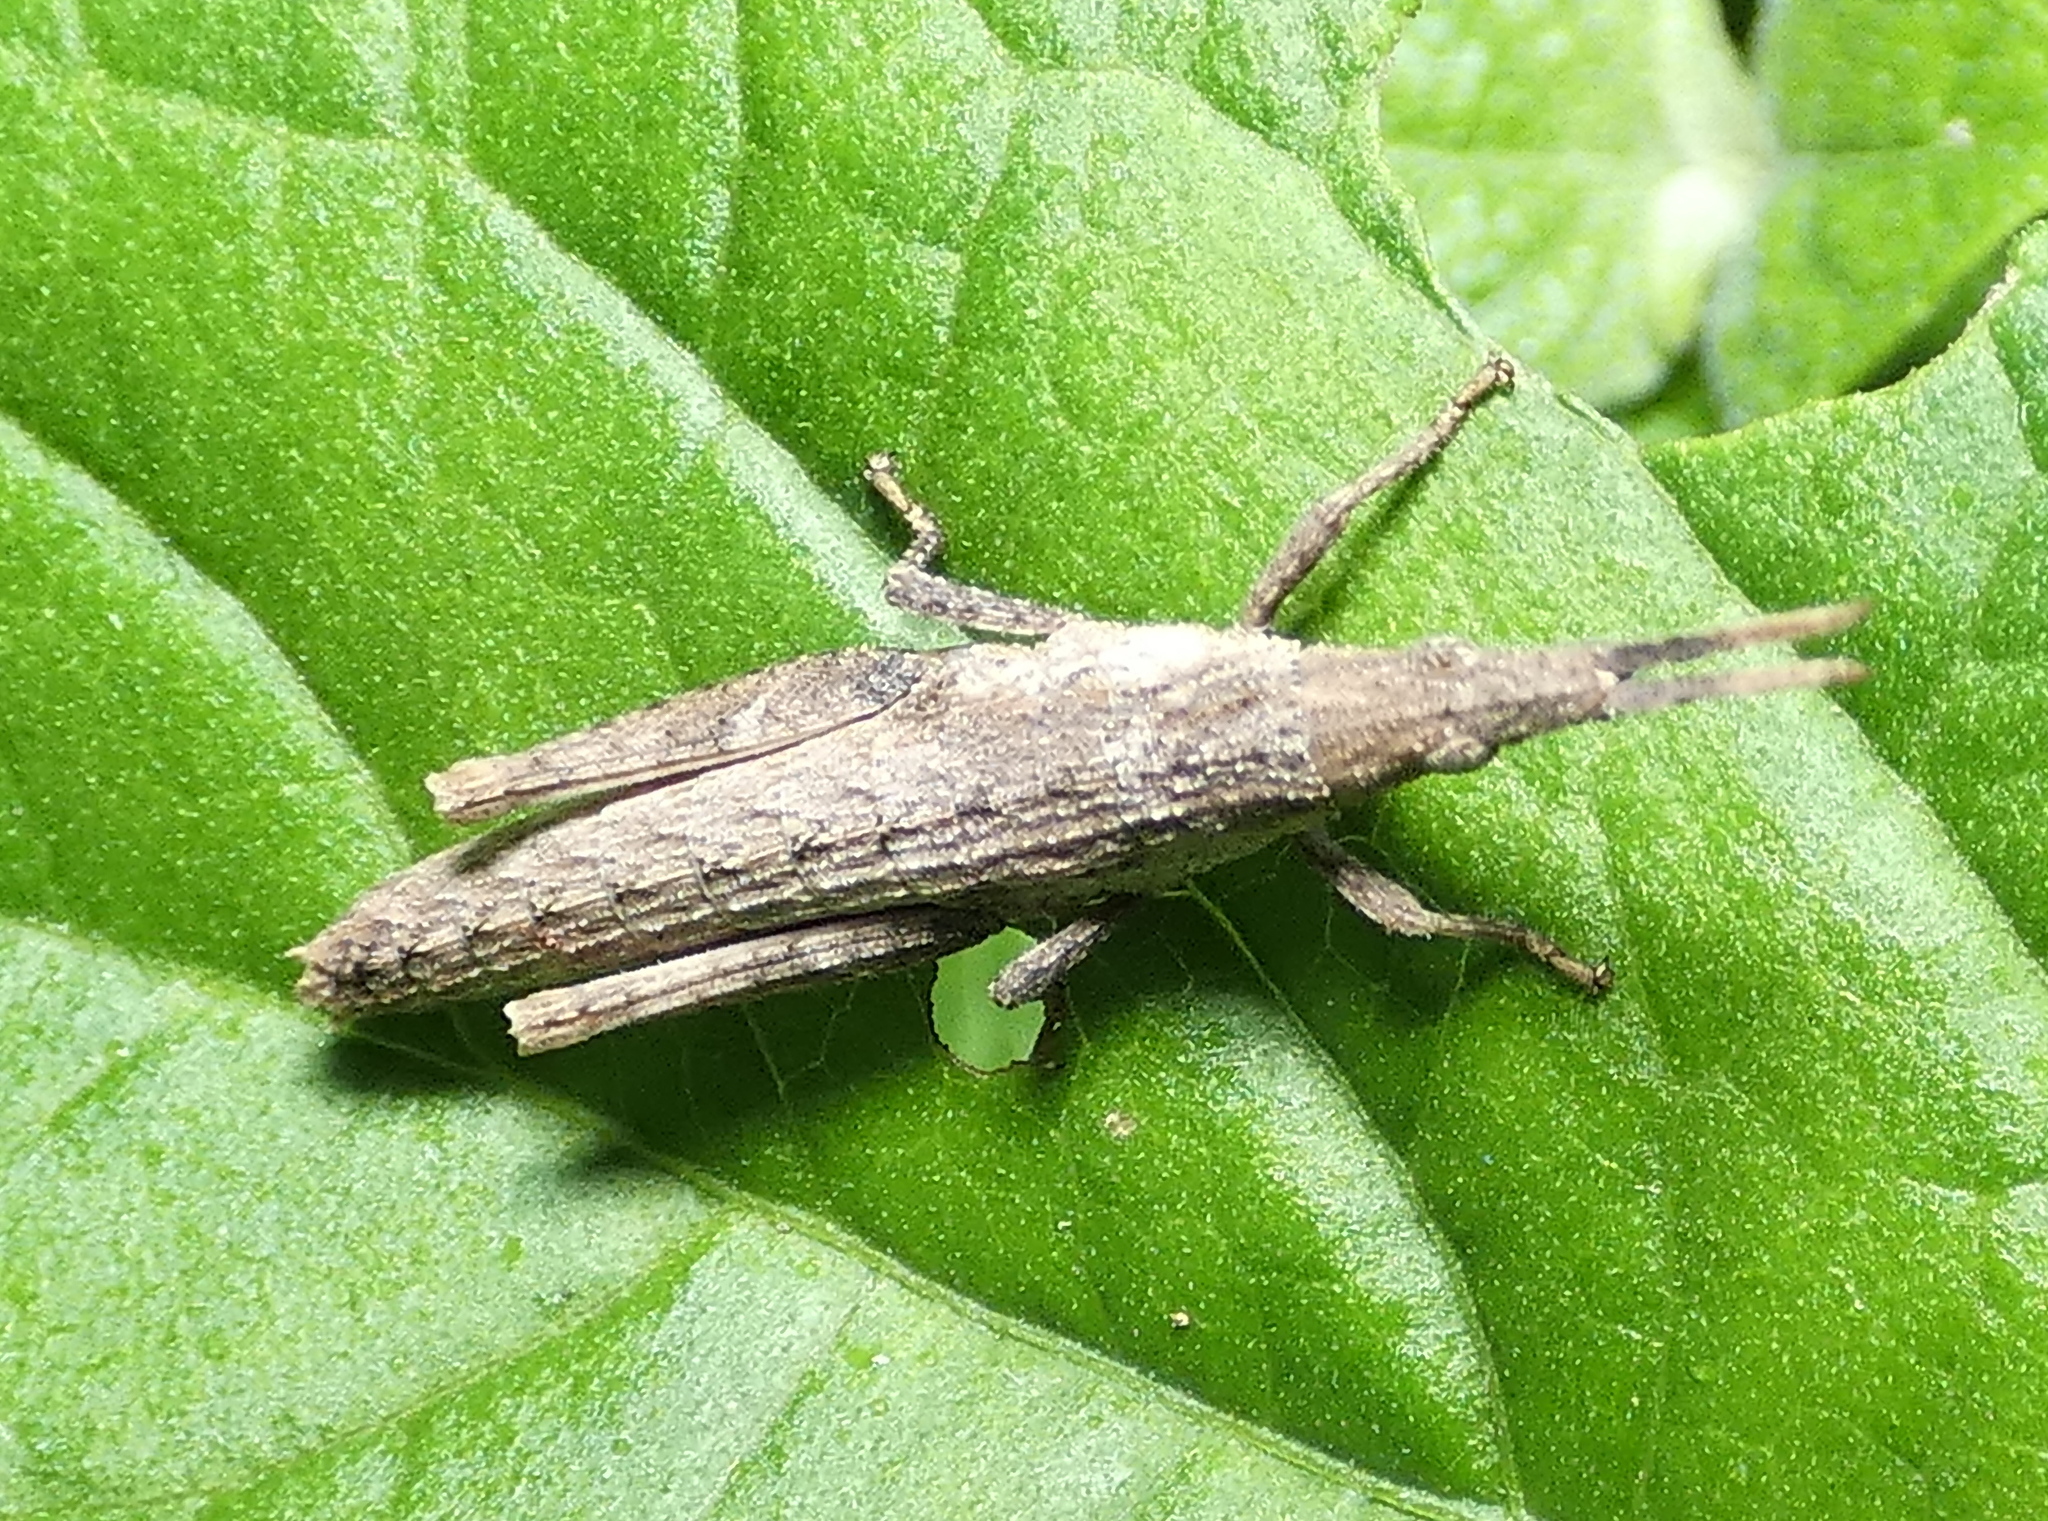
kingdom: Animalia
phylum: Arthropoda
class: Insecta
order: Orthoptera
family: Pyrgomorphidae
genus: Algete
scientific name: Algete brunneri
